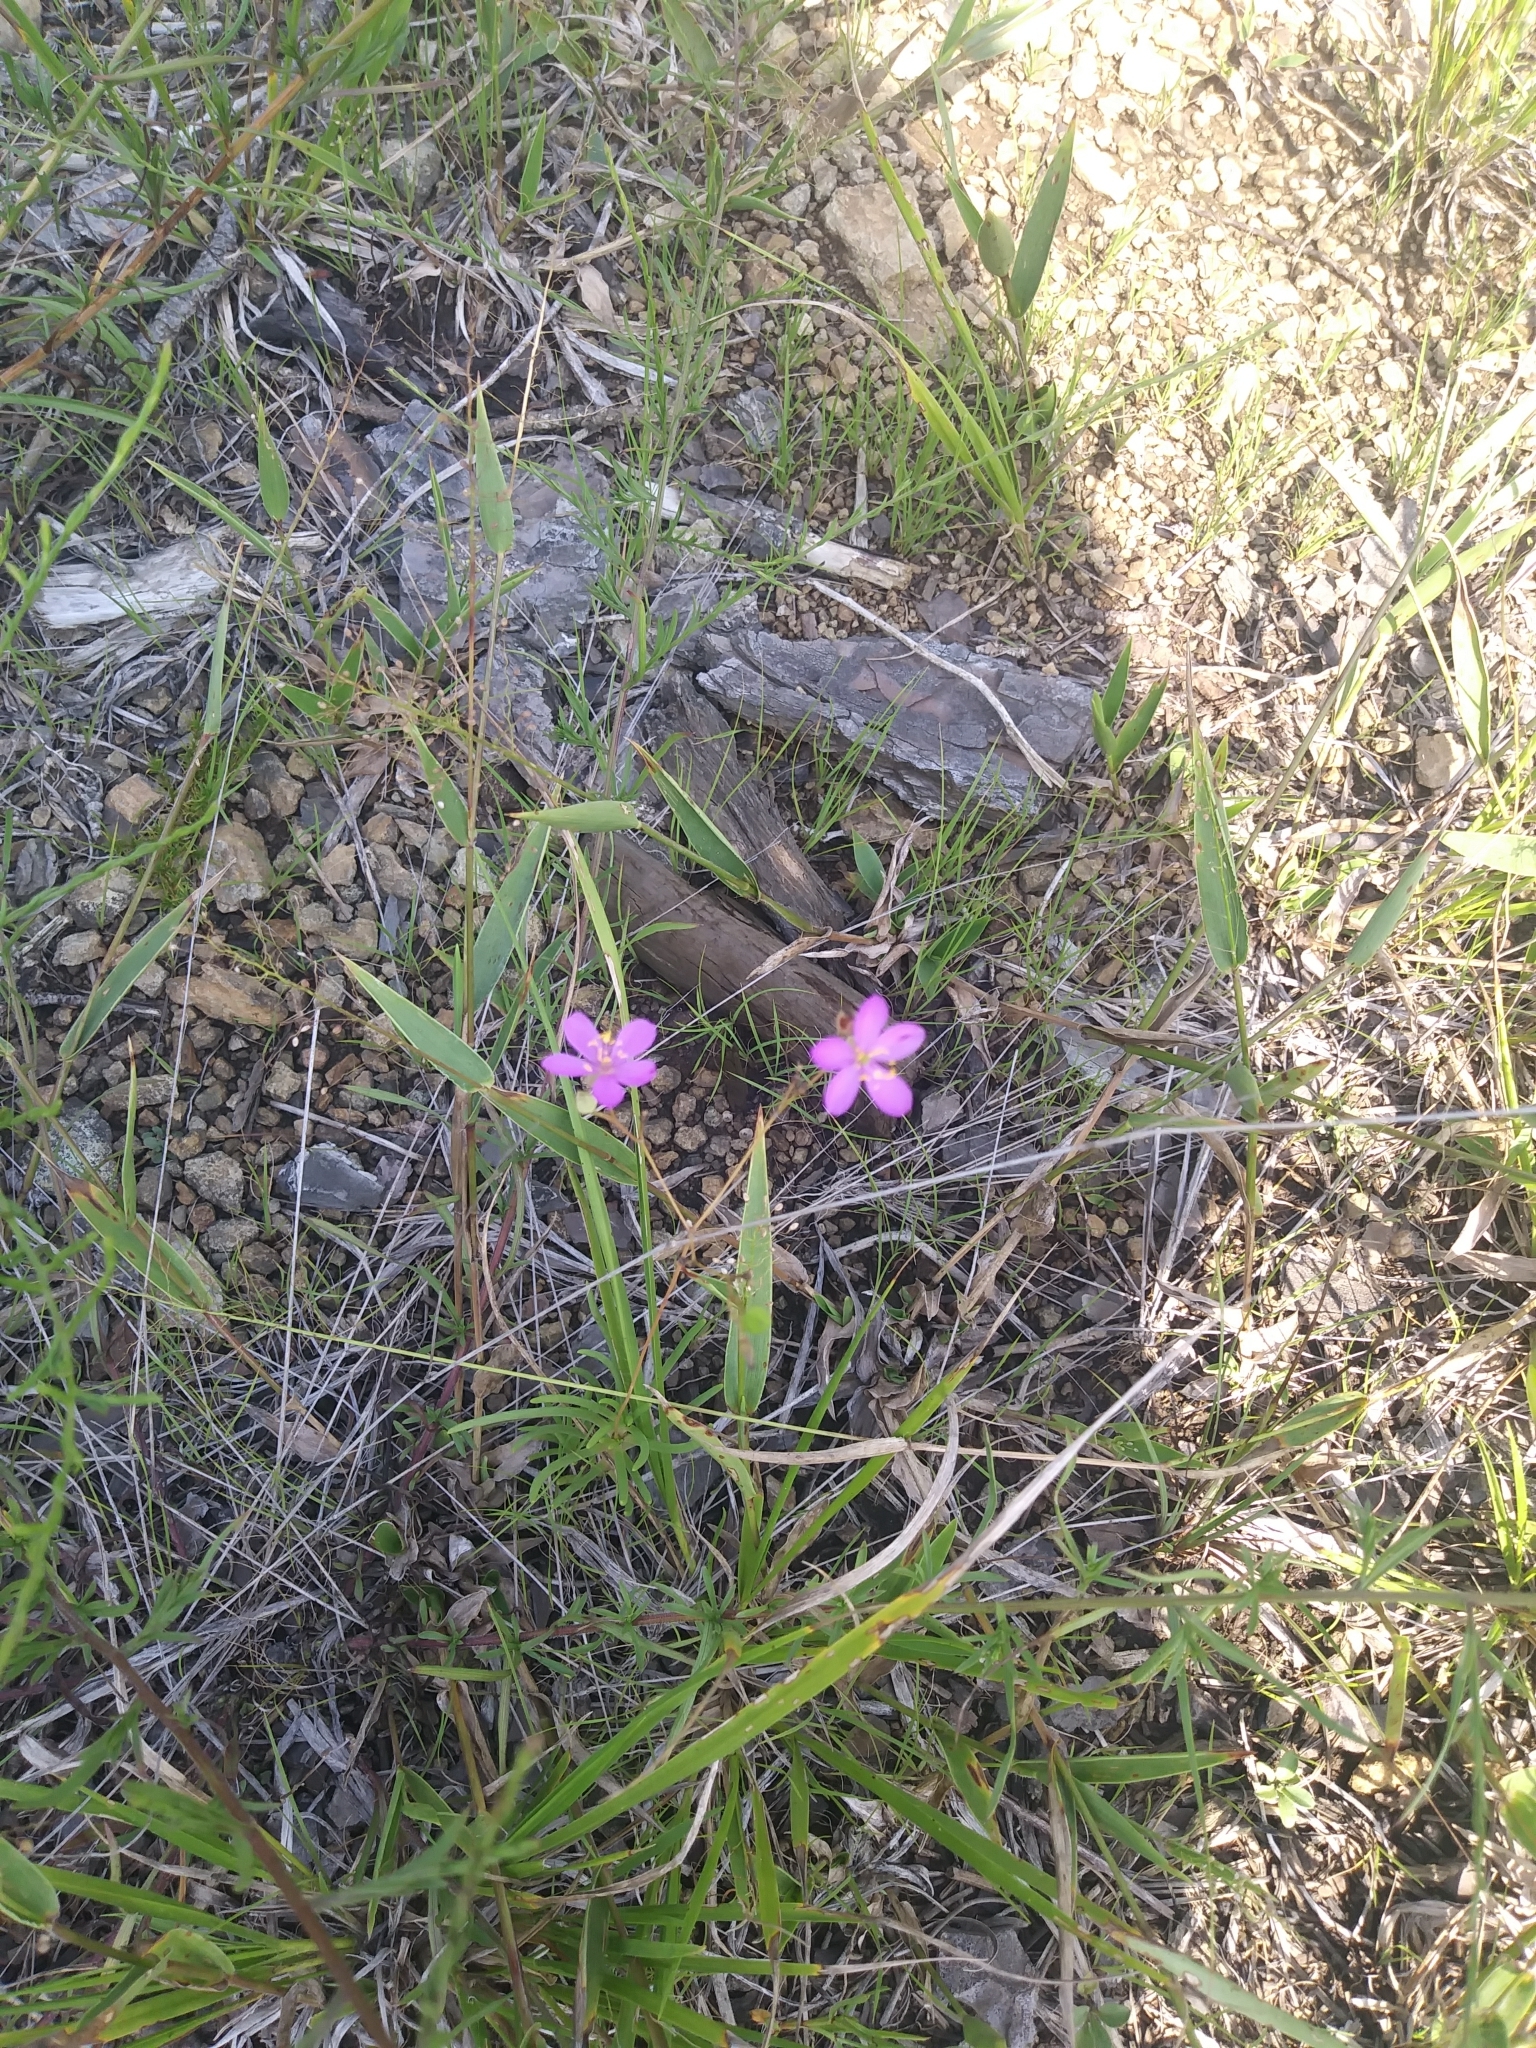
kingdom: Plantae
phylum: Tracheophyta
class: Magnoliopsida
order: Caryophyllales
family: Montiaceae
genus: Phemeranthus
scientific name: Phemeranthus teretifolius
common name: Quill fameflower
